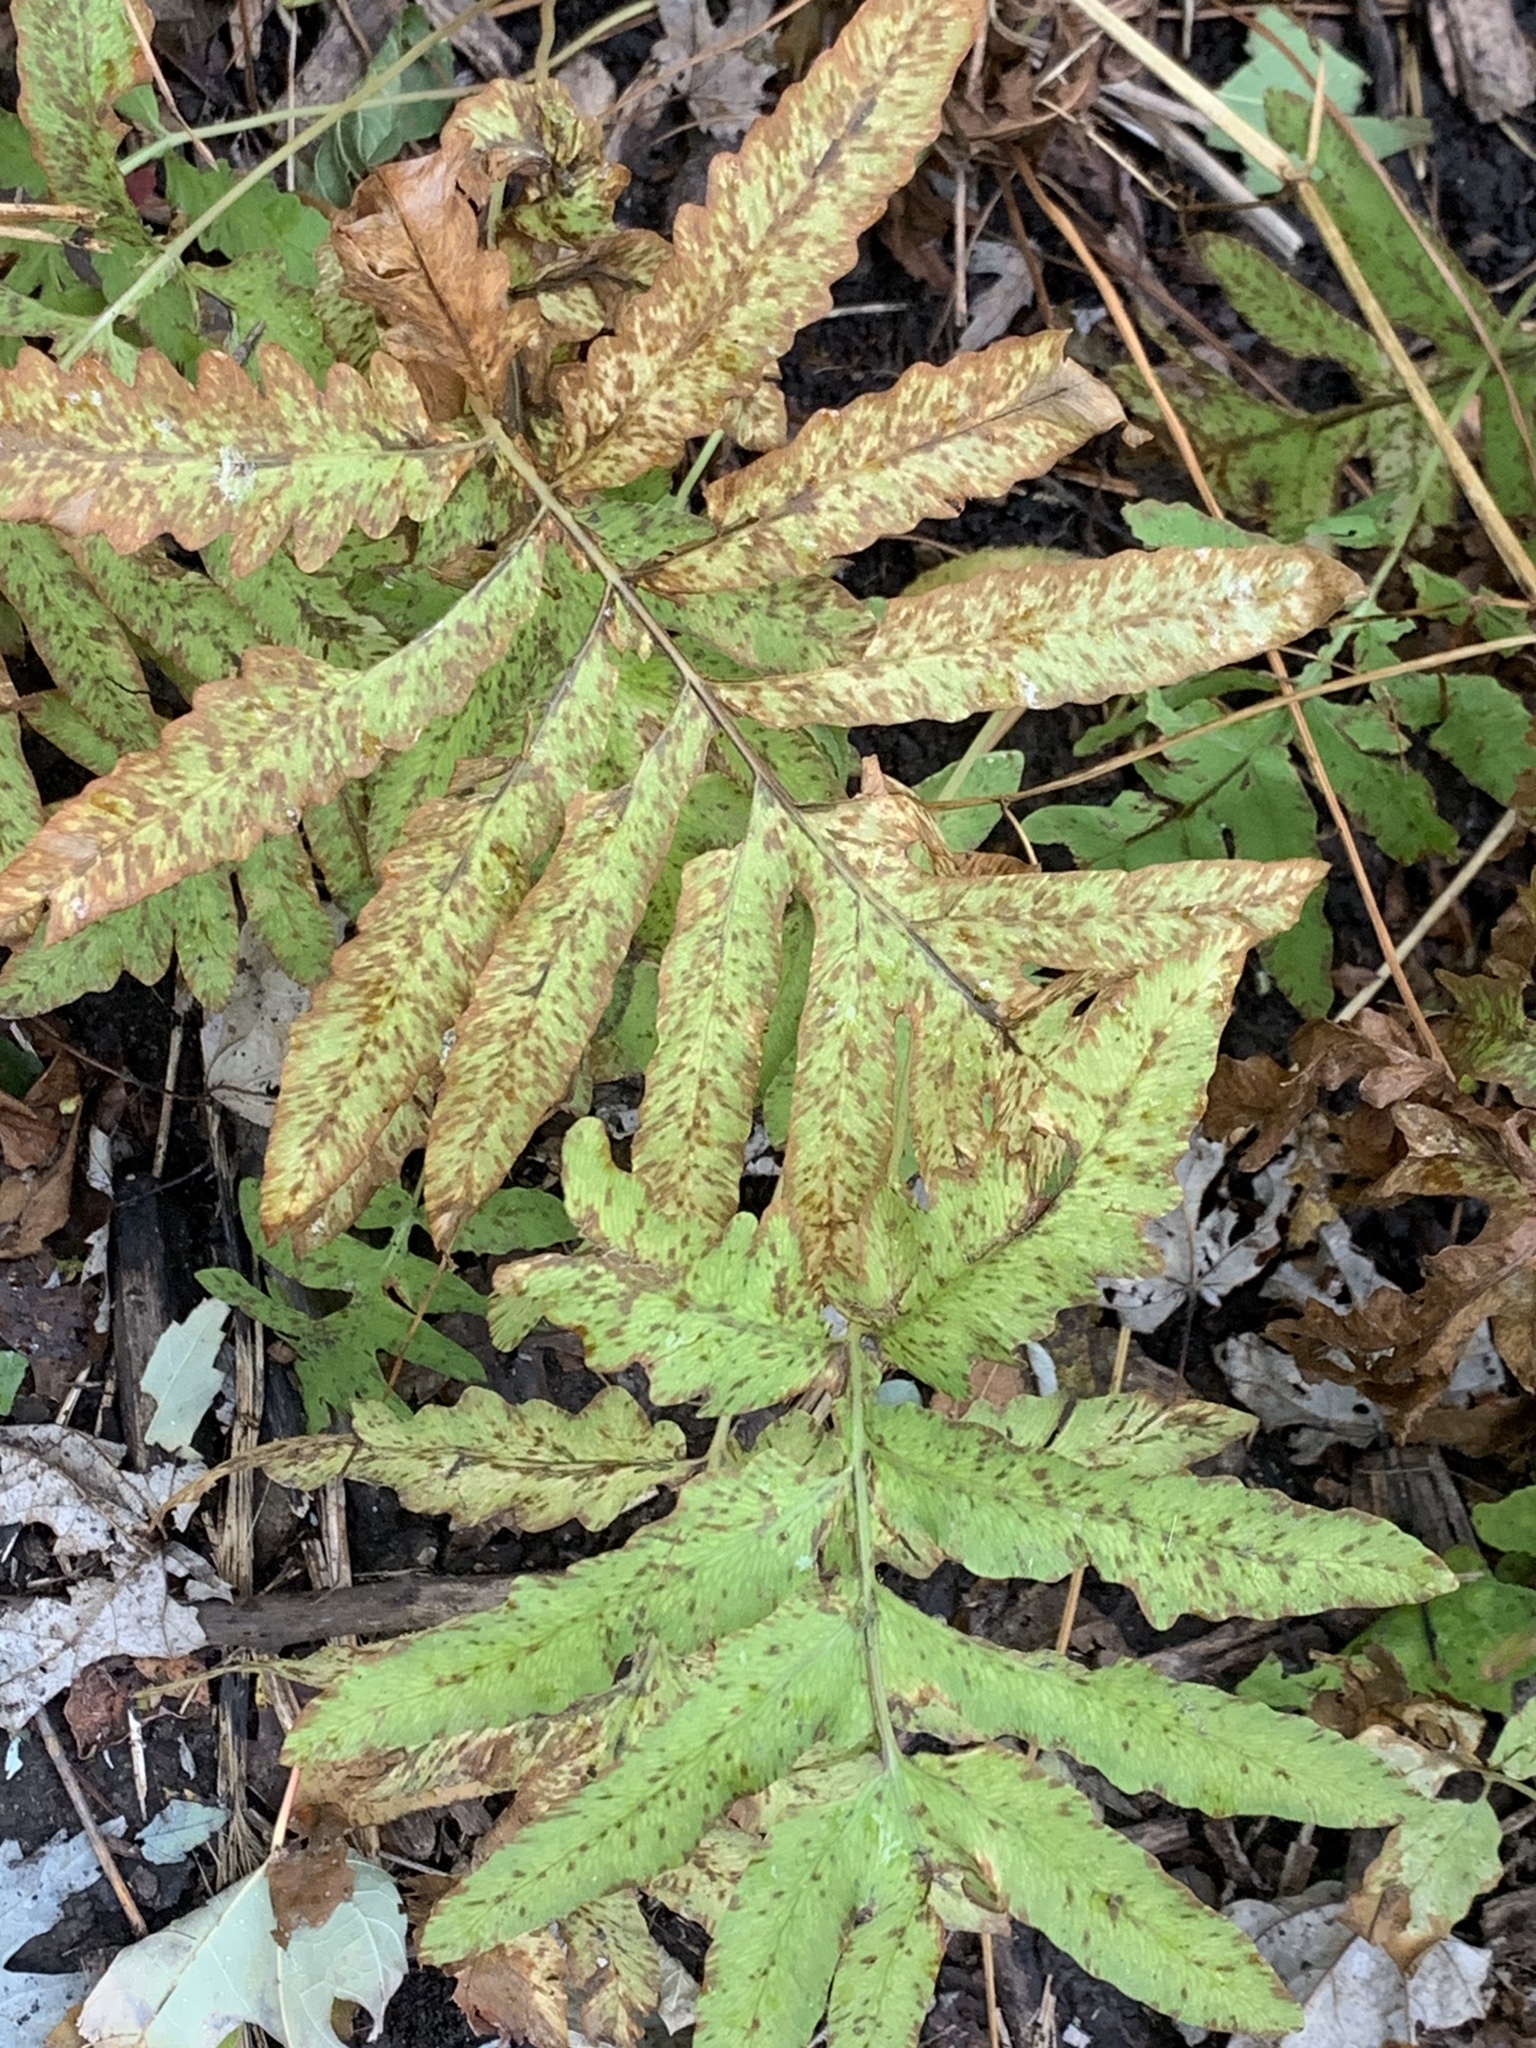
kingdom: Plantae
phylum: Tracheophyta
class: Polypodiopsida
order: Polypodiales
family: Onocleaceae
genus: Onoclea
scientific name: Onoclea sensibilis
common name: Sensitive fern
